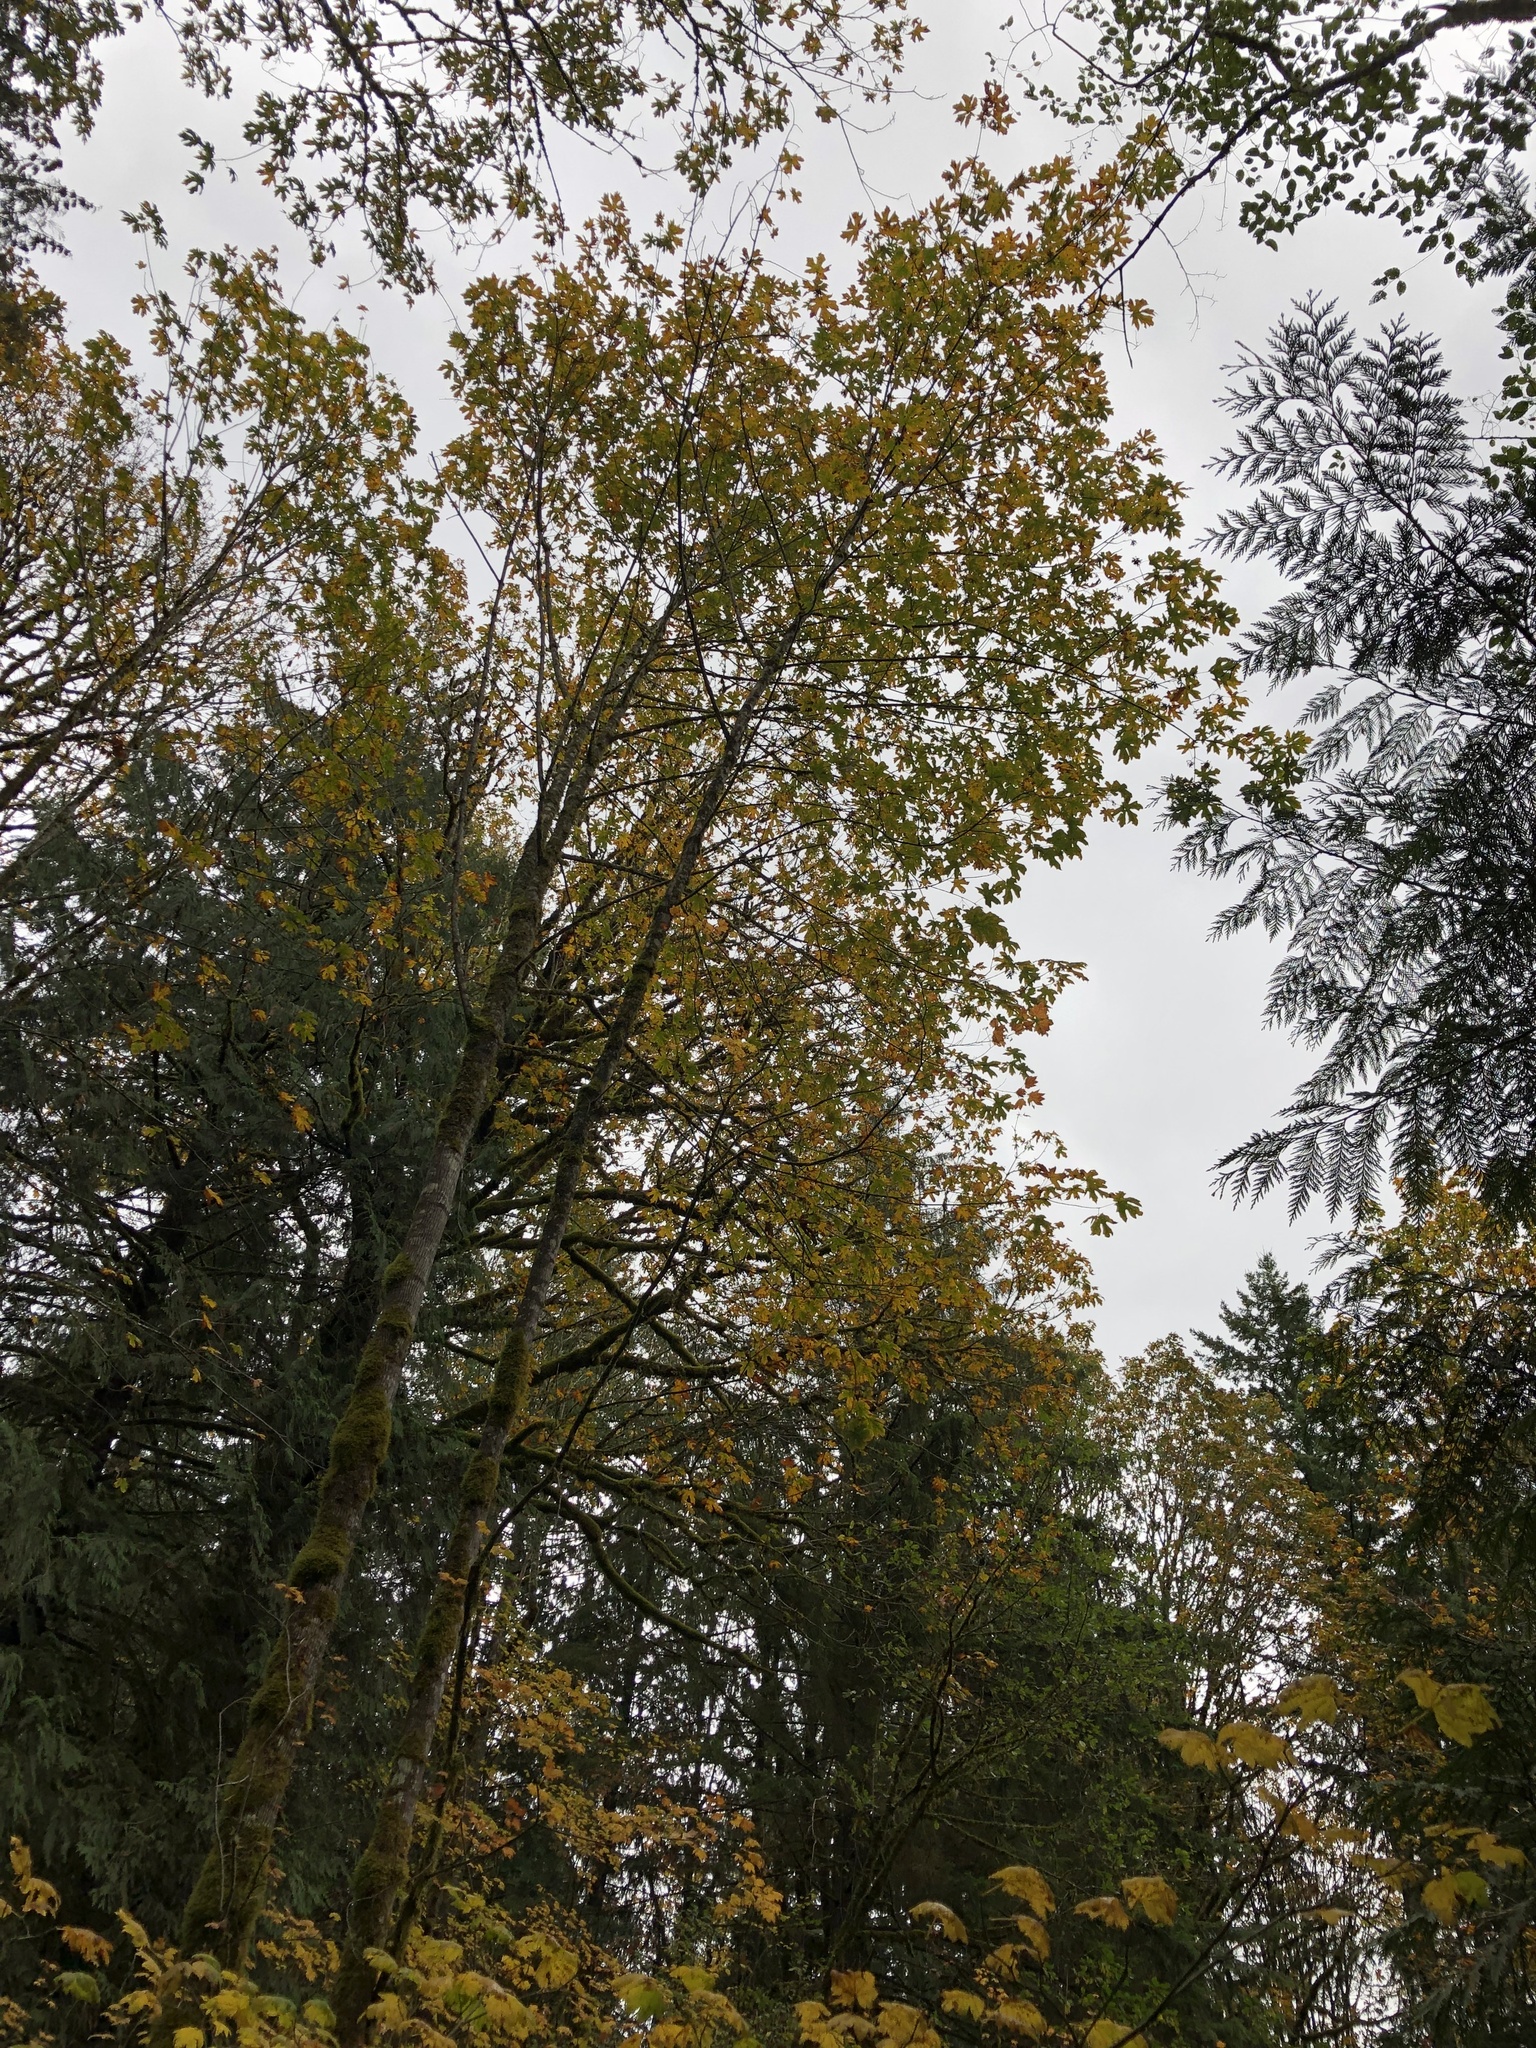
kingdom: Plantae
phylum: Tracheophyta
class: Magnoliopsida
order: Sapindales
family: Sapindaceae
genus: Acer
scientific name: Acer macrophyllum
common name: Oregon maple
